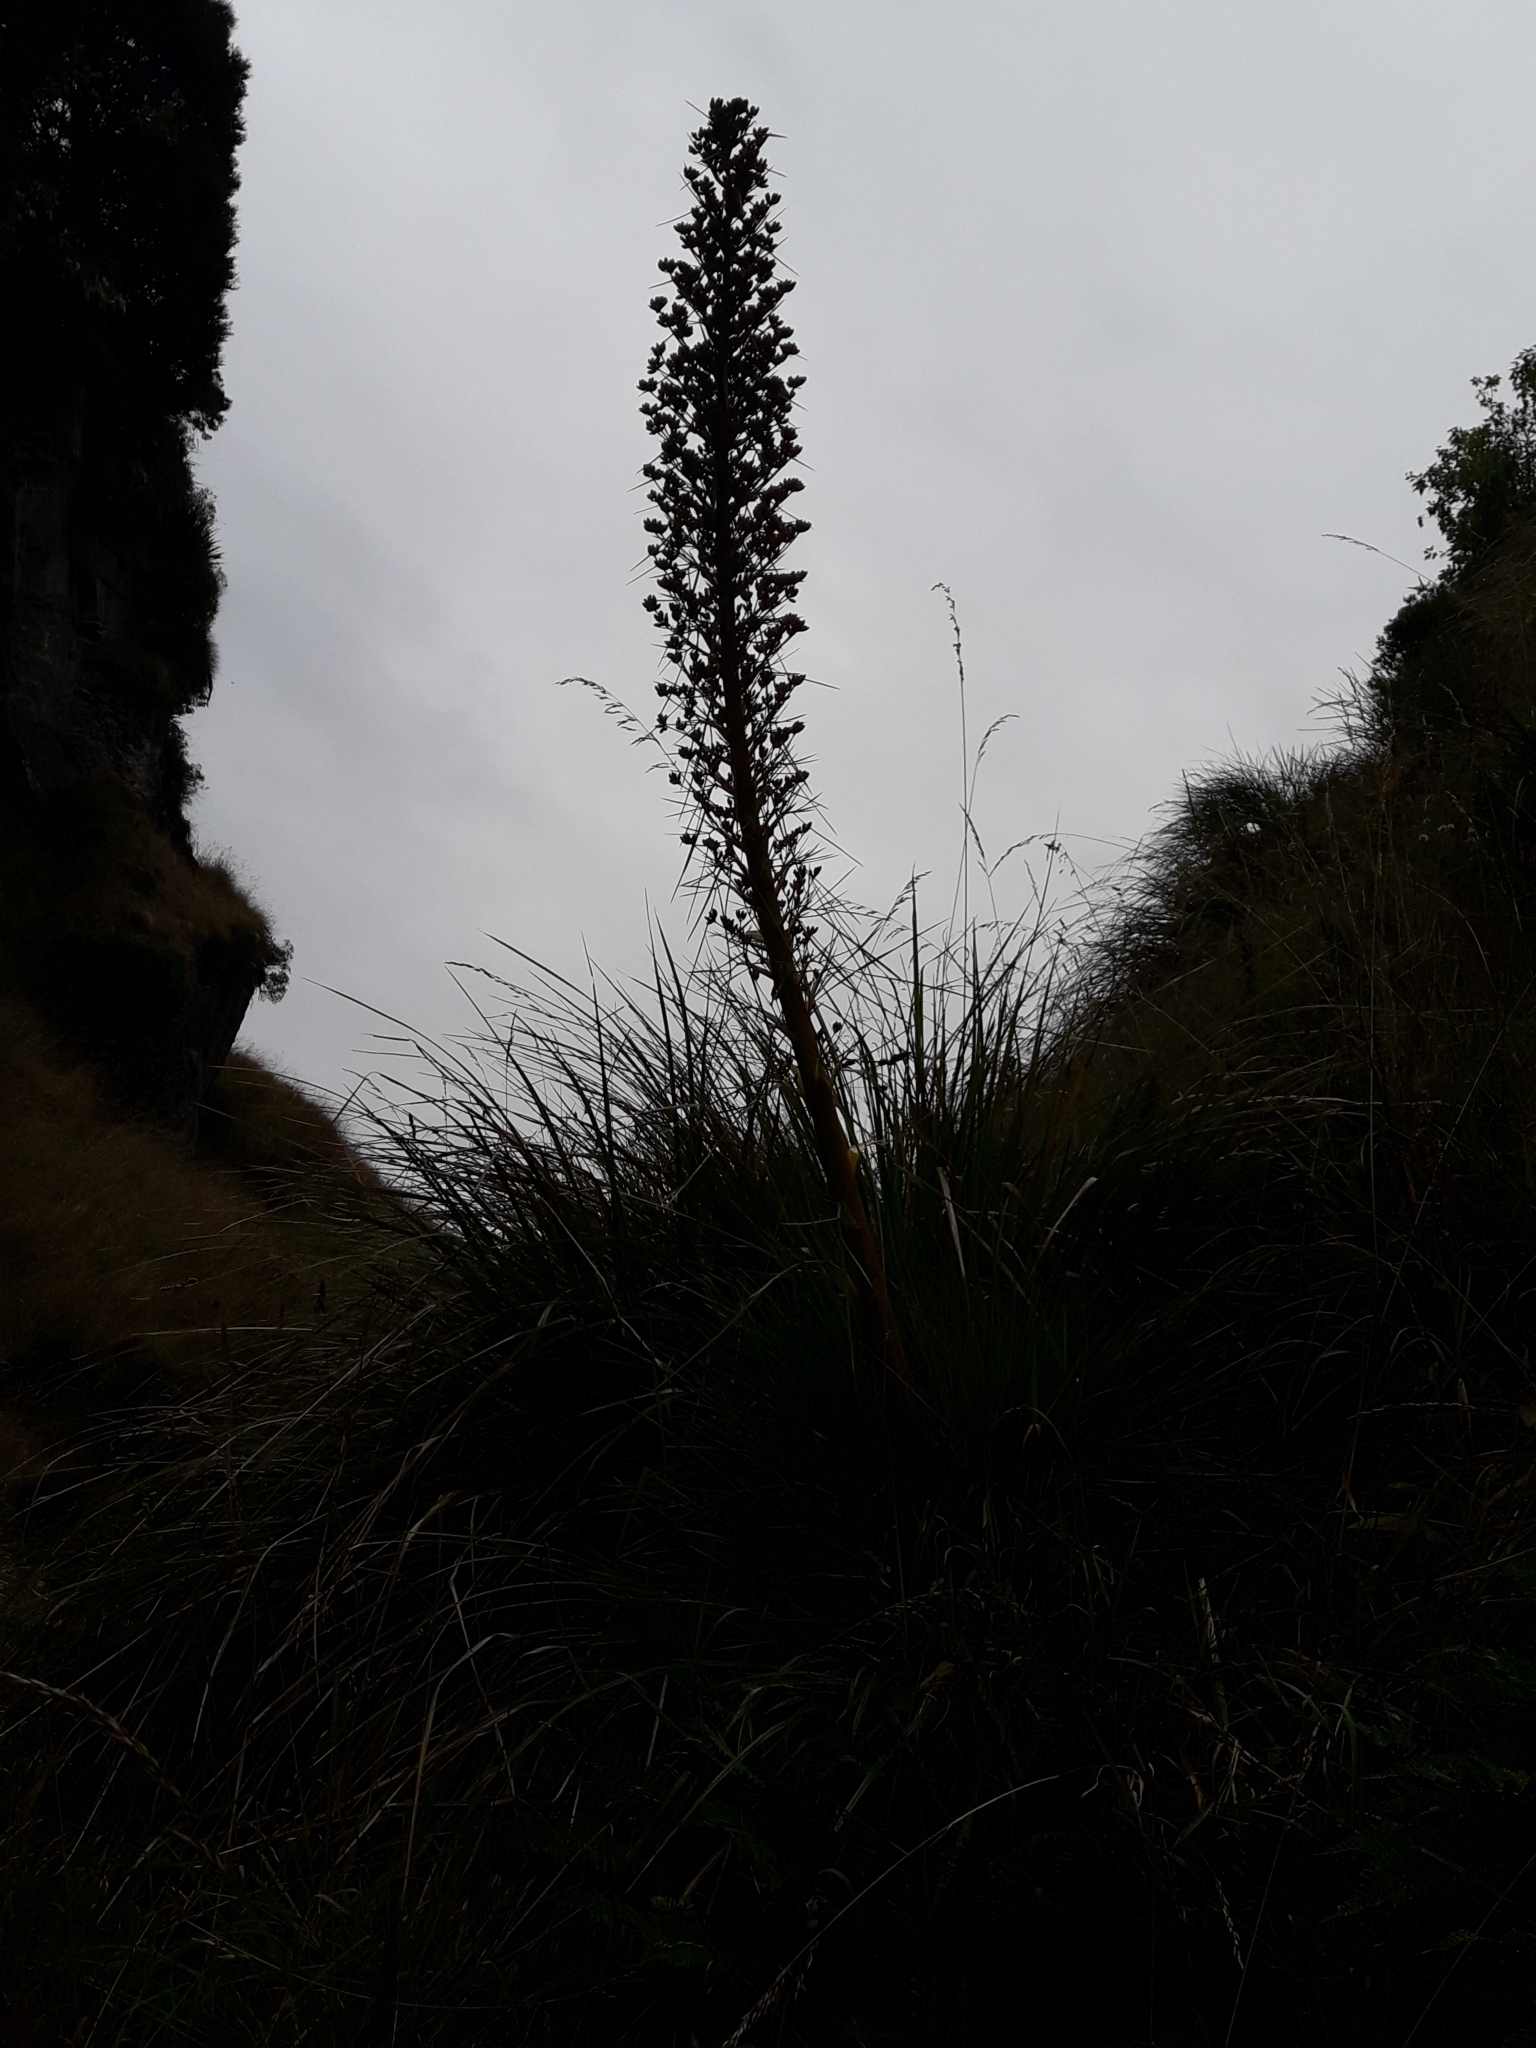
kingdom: Plantae
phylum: Tracheophyta
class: Magnoliopsida
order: Apiales
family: Apiaceae
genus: Aciphylla
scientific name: Aciphylla glaucescens
